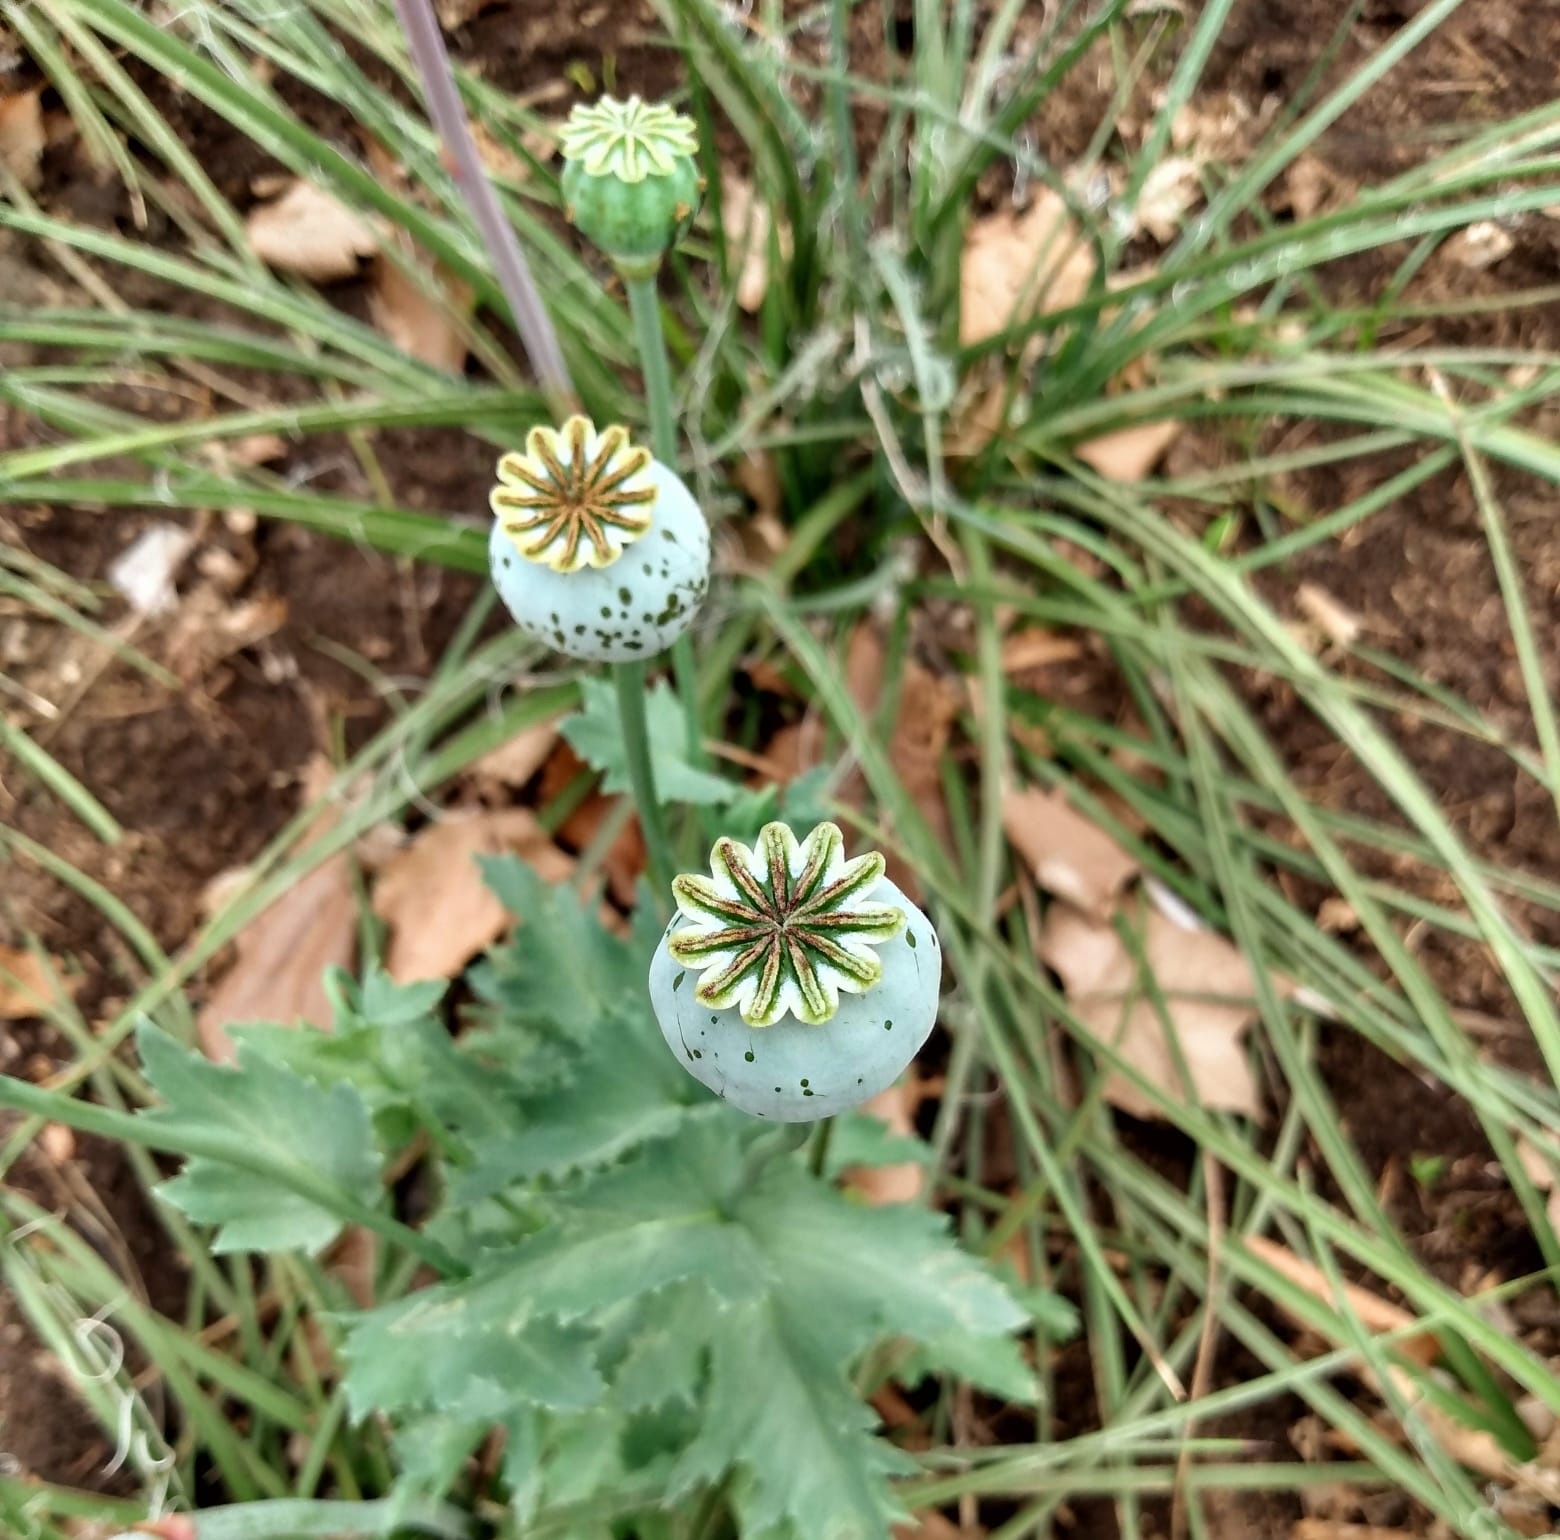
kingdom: Plantae
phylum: Tracheophyta
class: Magnoliopsida
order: Ranunculales
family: Papaveraceae
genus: Papaver
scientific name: Papaver somniferum
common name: Opium poppy
